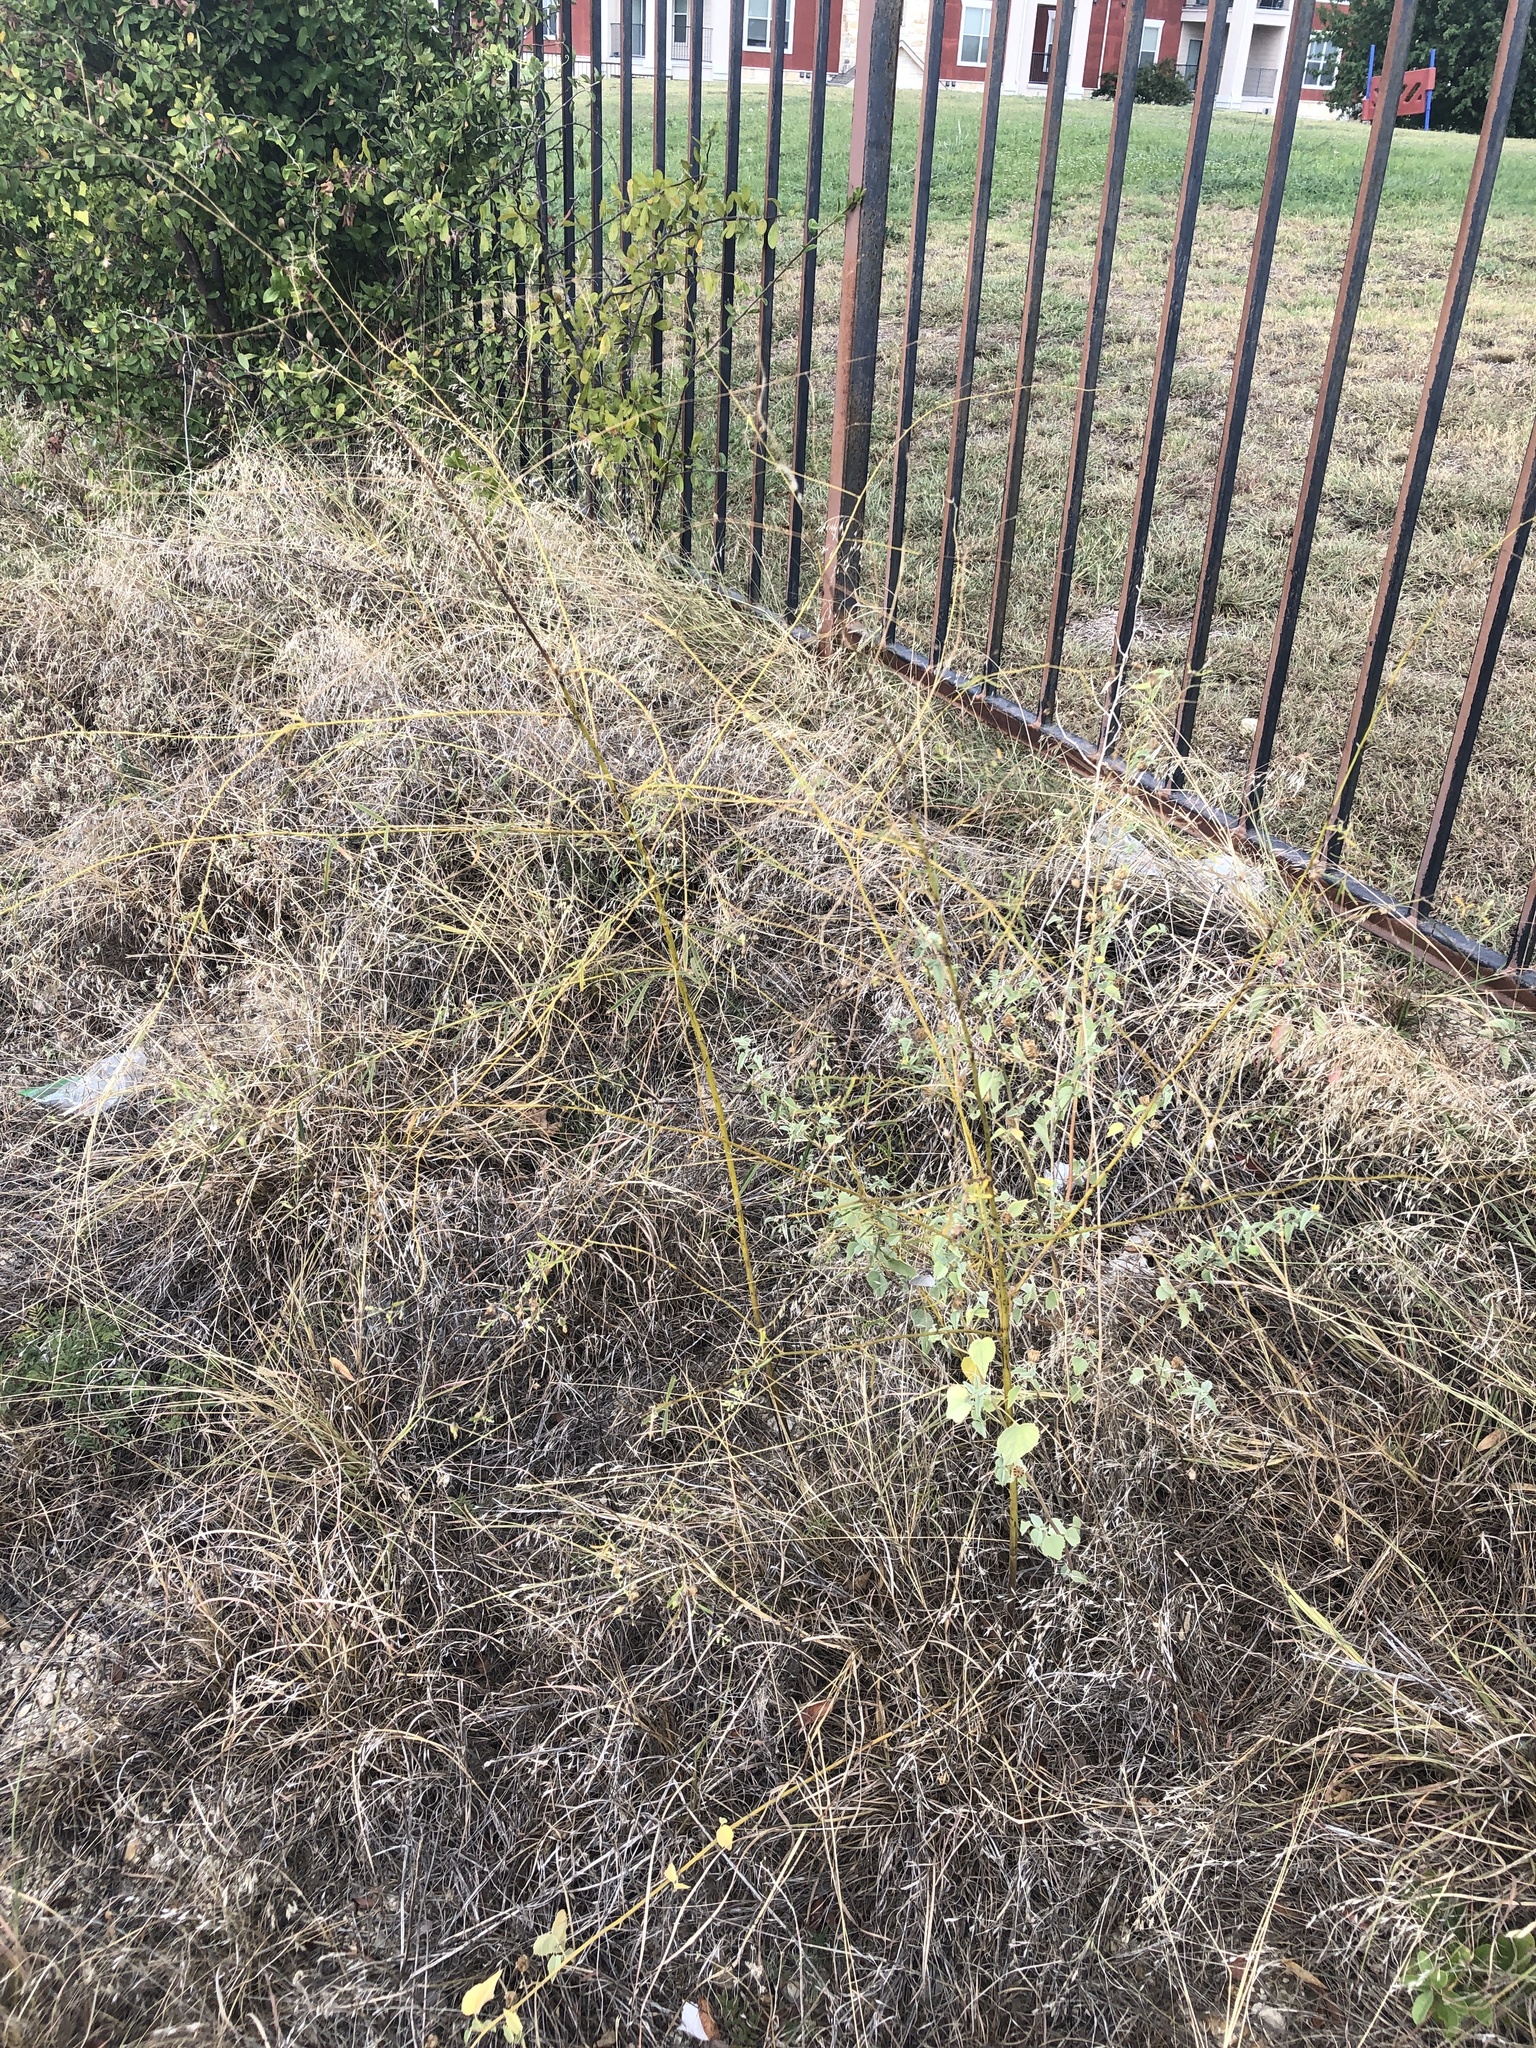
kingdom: Plantae
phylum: Tracheophyta
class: Magnoliopsida
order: Fabales
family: Fabaceae
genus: Pediomelum
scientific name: Pediomelum linearifolium
